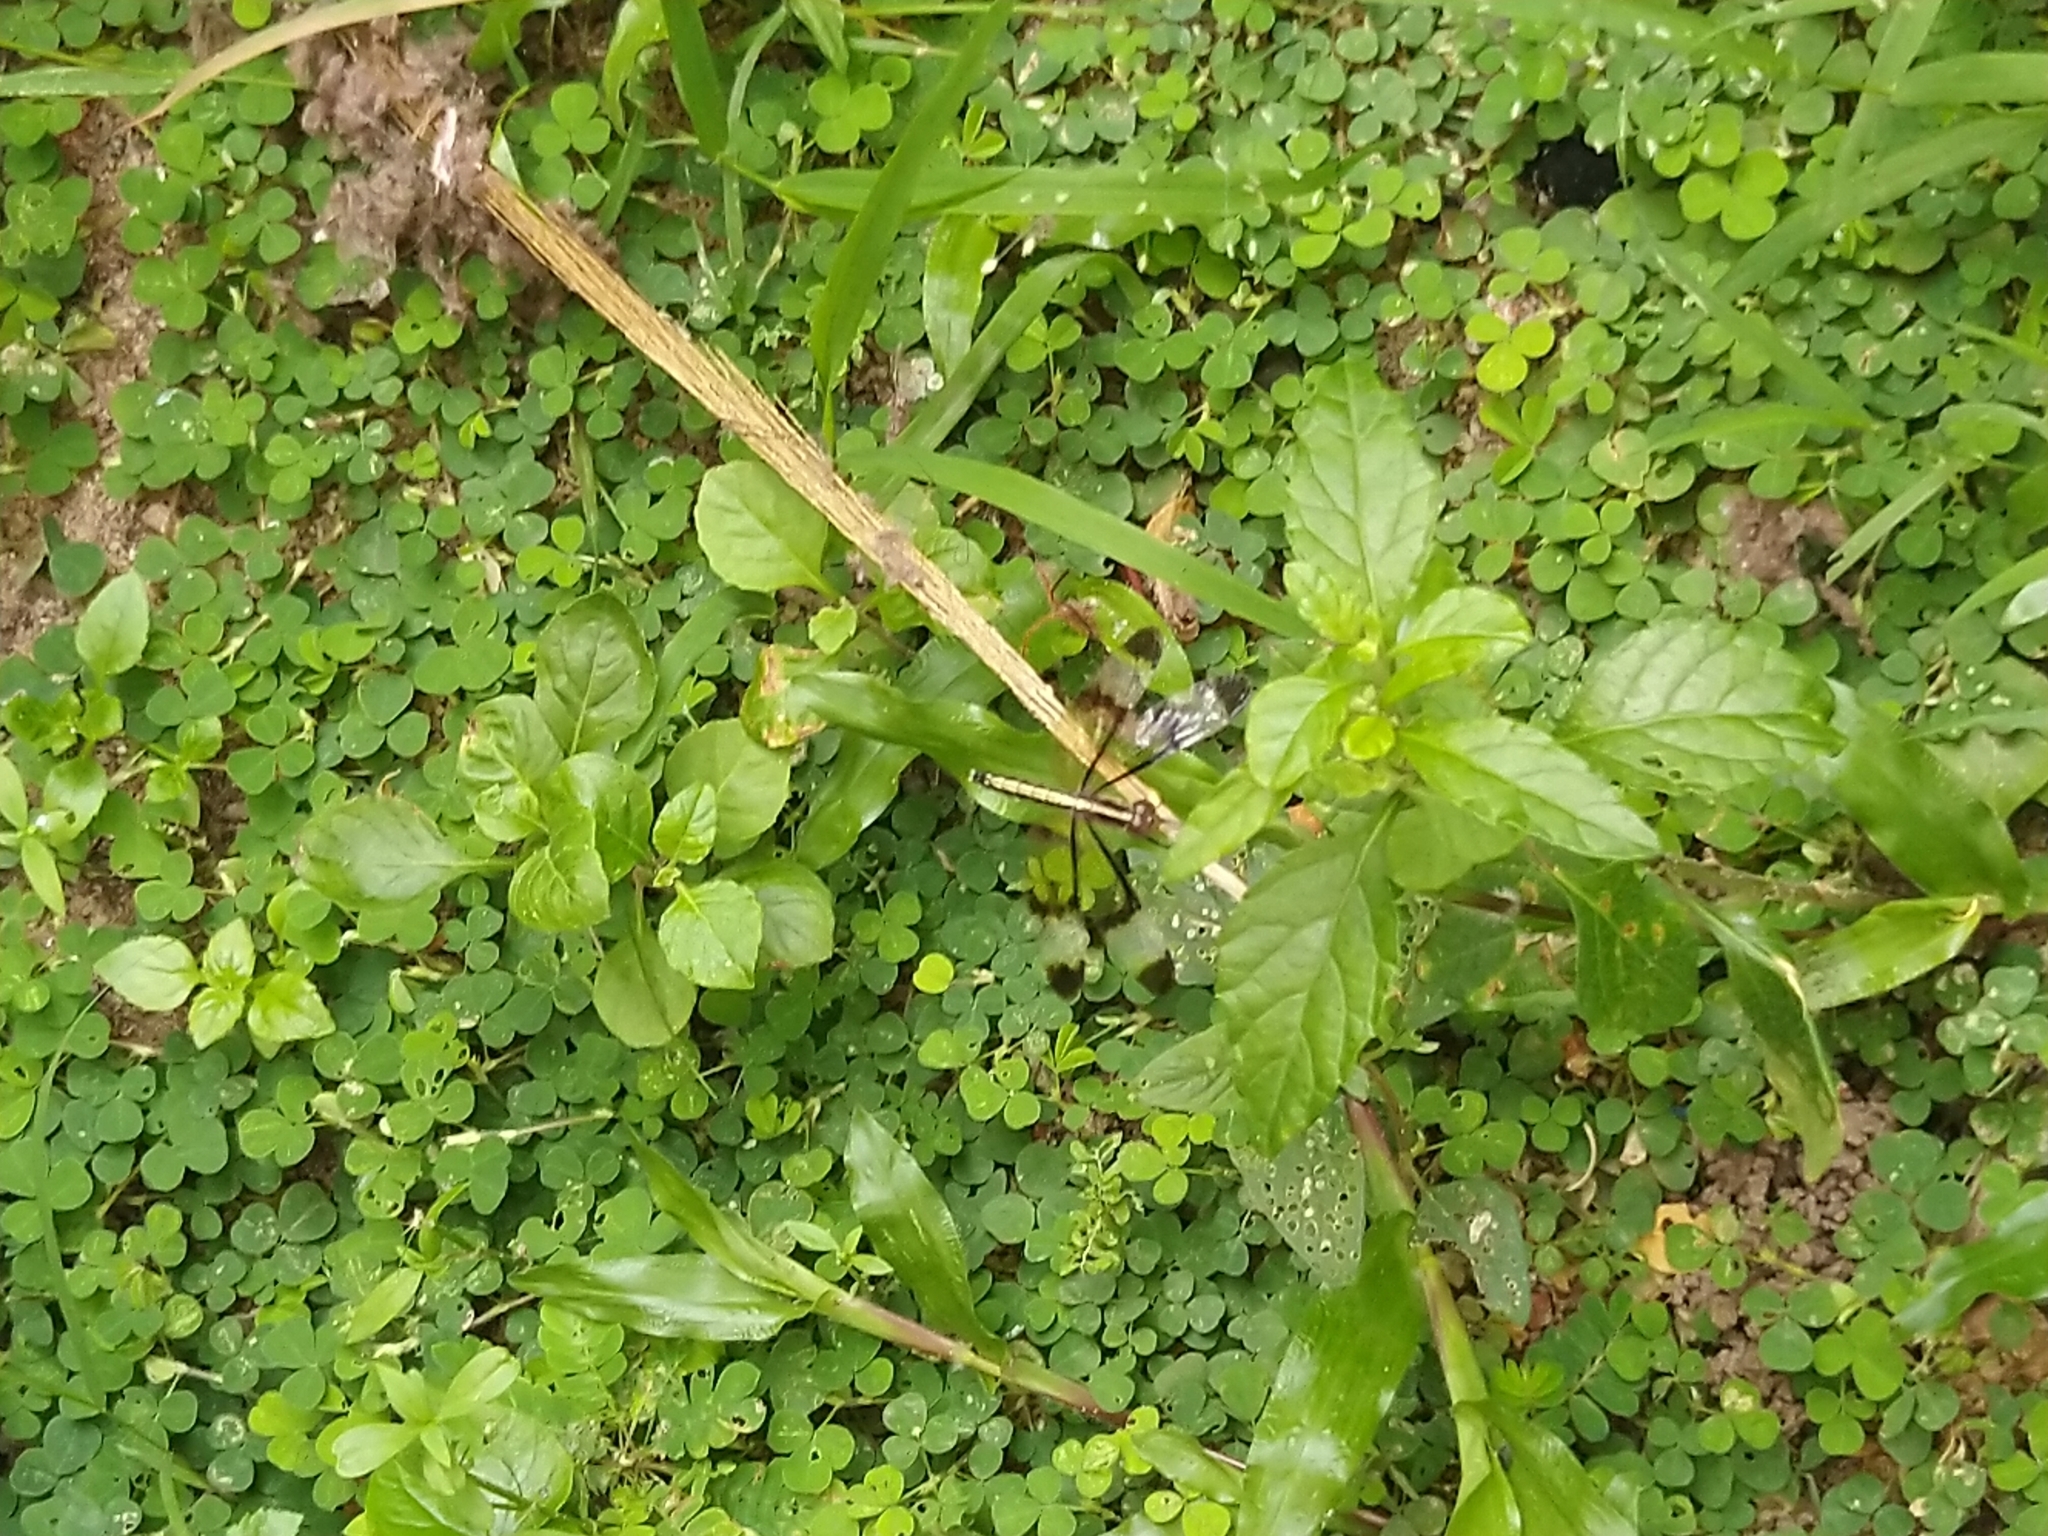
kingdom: Animalia
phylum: Arthropoda
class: Insecta
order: Odonata
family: Libellulidae
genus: Neurothemis
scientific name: Neurothemis tullia
